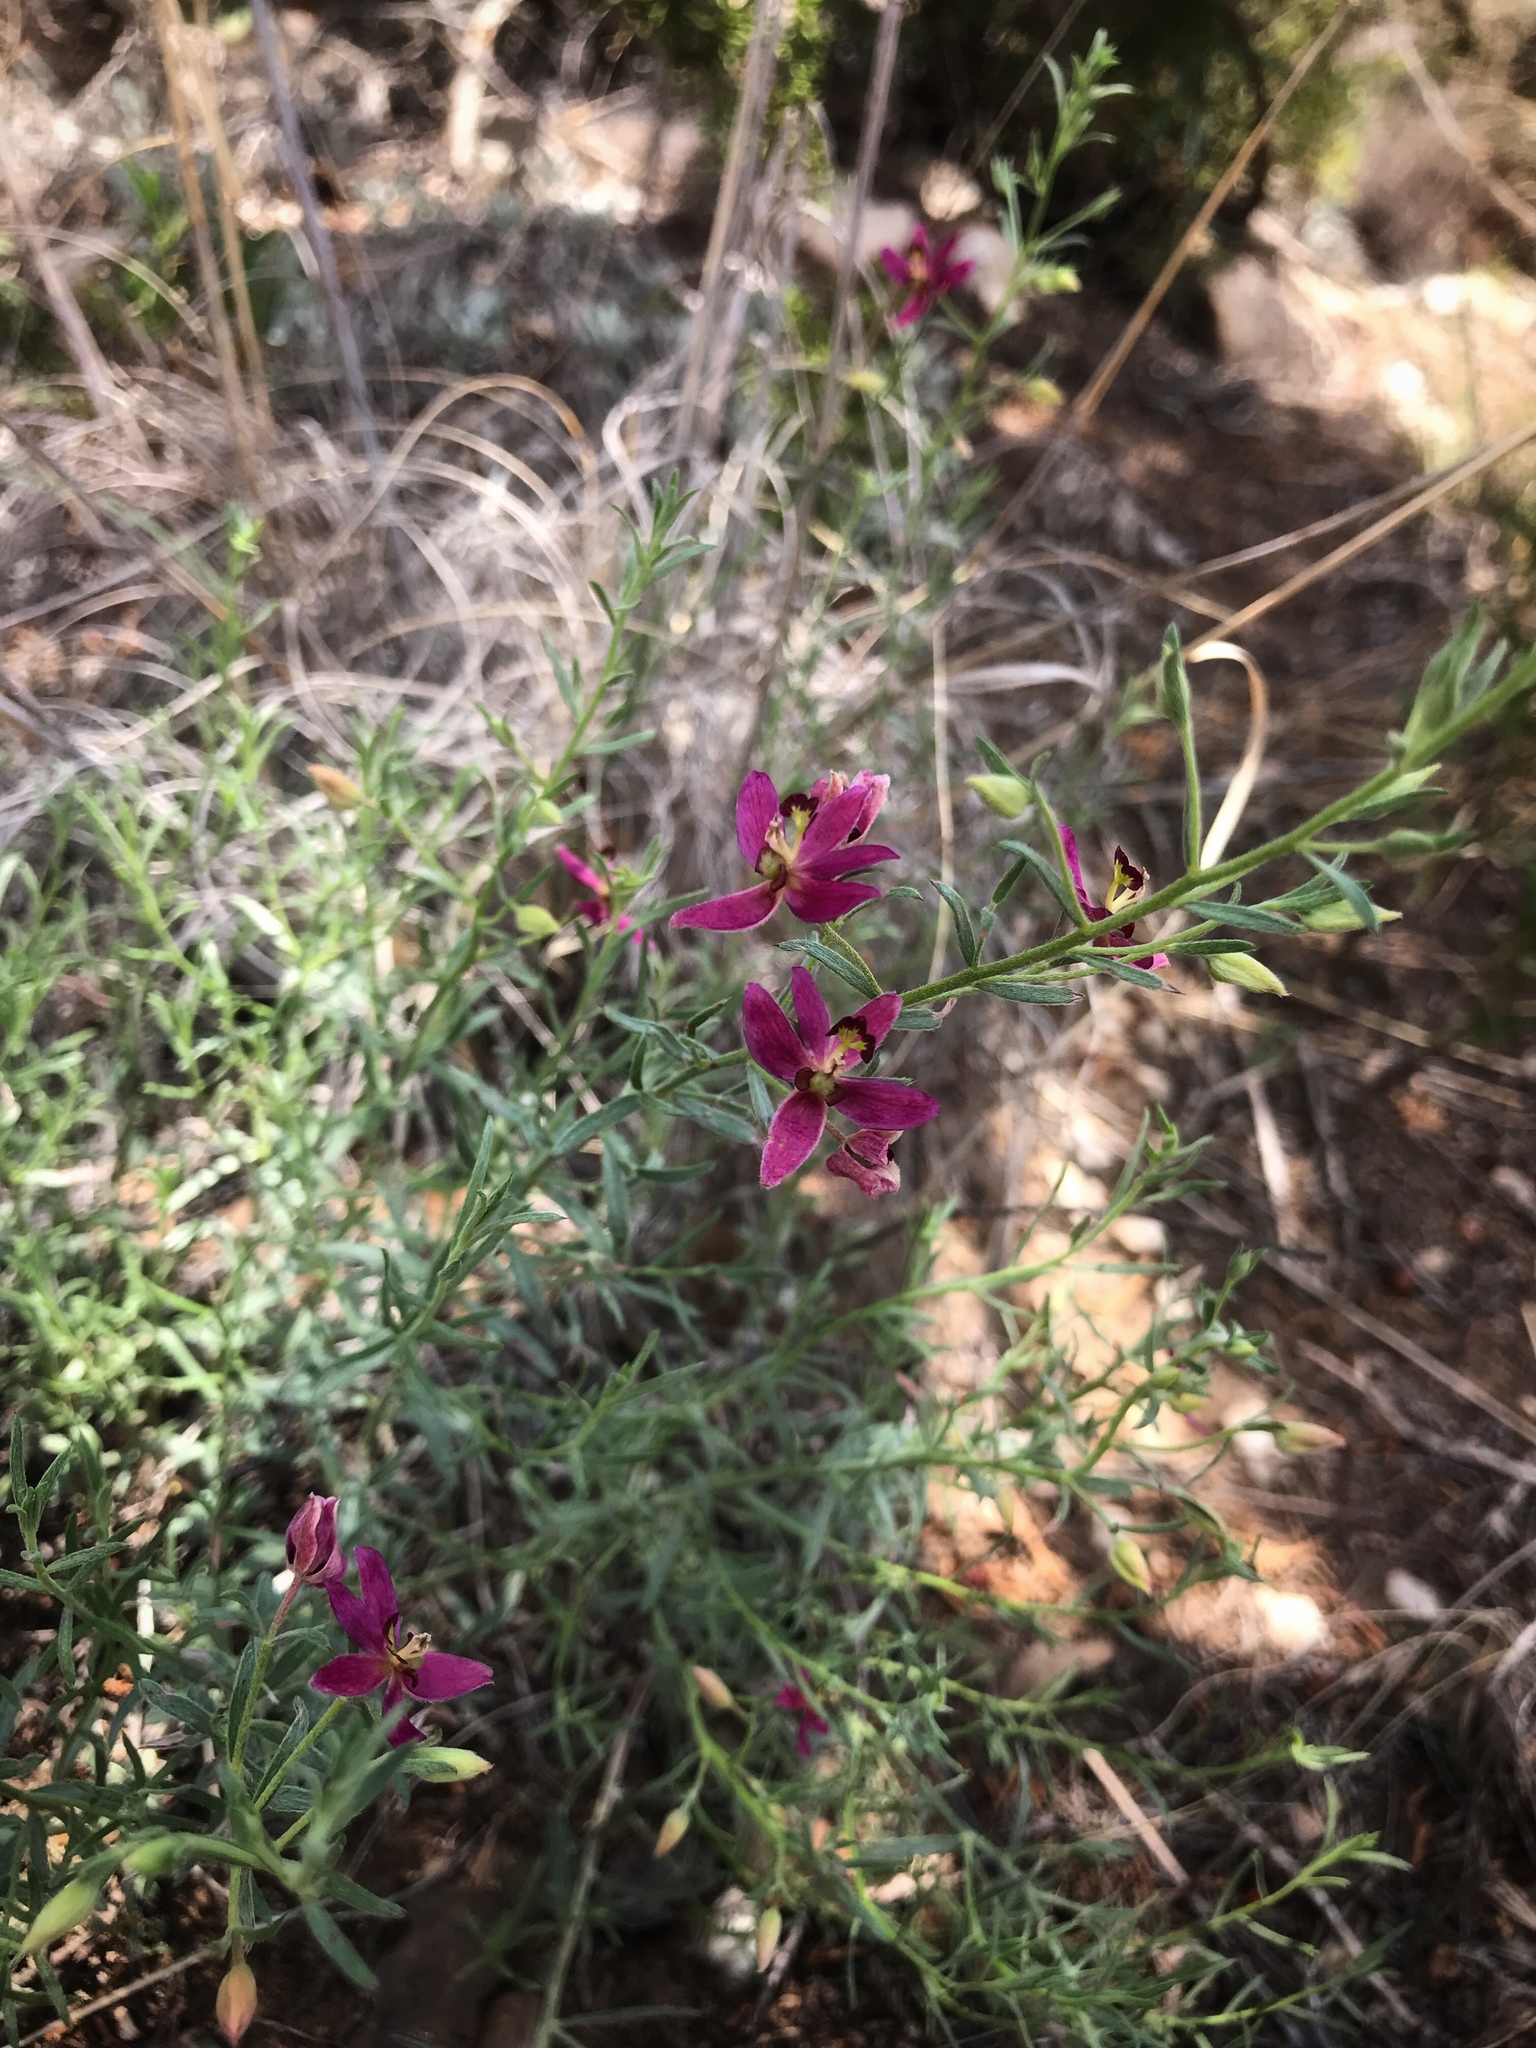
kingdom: Plantae
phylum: Tracheophyta
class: Magnoliopsida
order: Zygophyllales
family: Krameriaceae
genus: Krameria
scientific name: Krameria lanceolata
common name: Ratany
